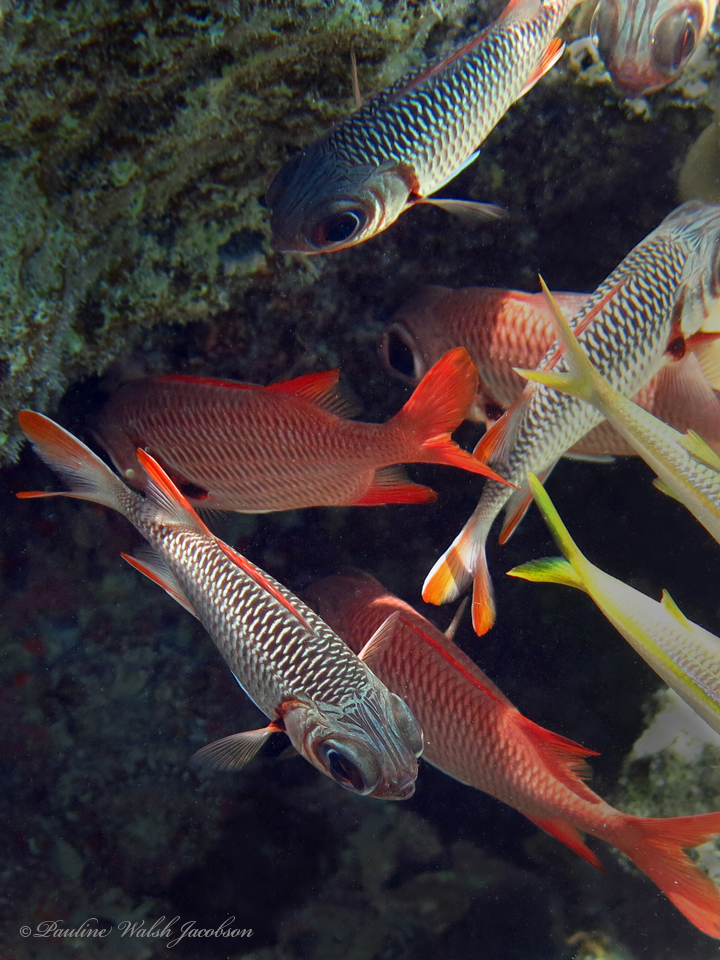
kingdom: Animalia
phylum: Chordata
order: Beryciformes
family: Holocentridae
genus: Myripristis
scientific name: Myripristis violacea
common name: Lattice soldierfish
